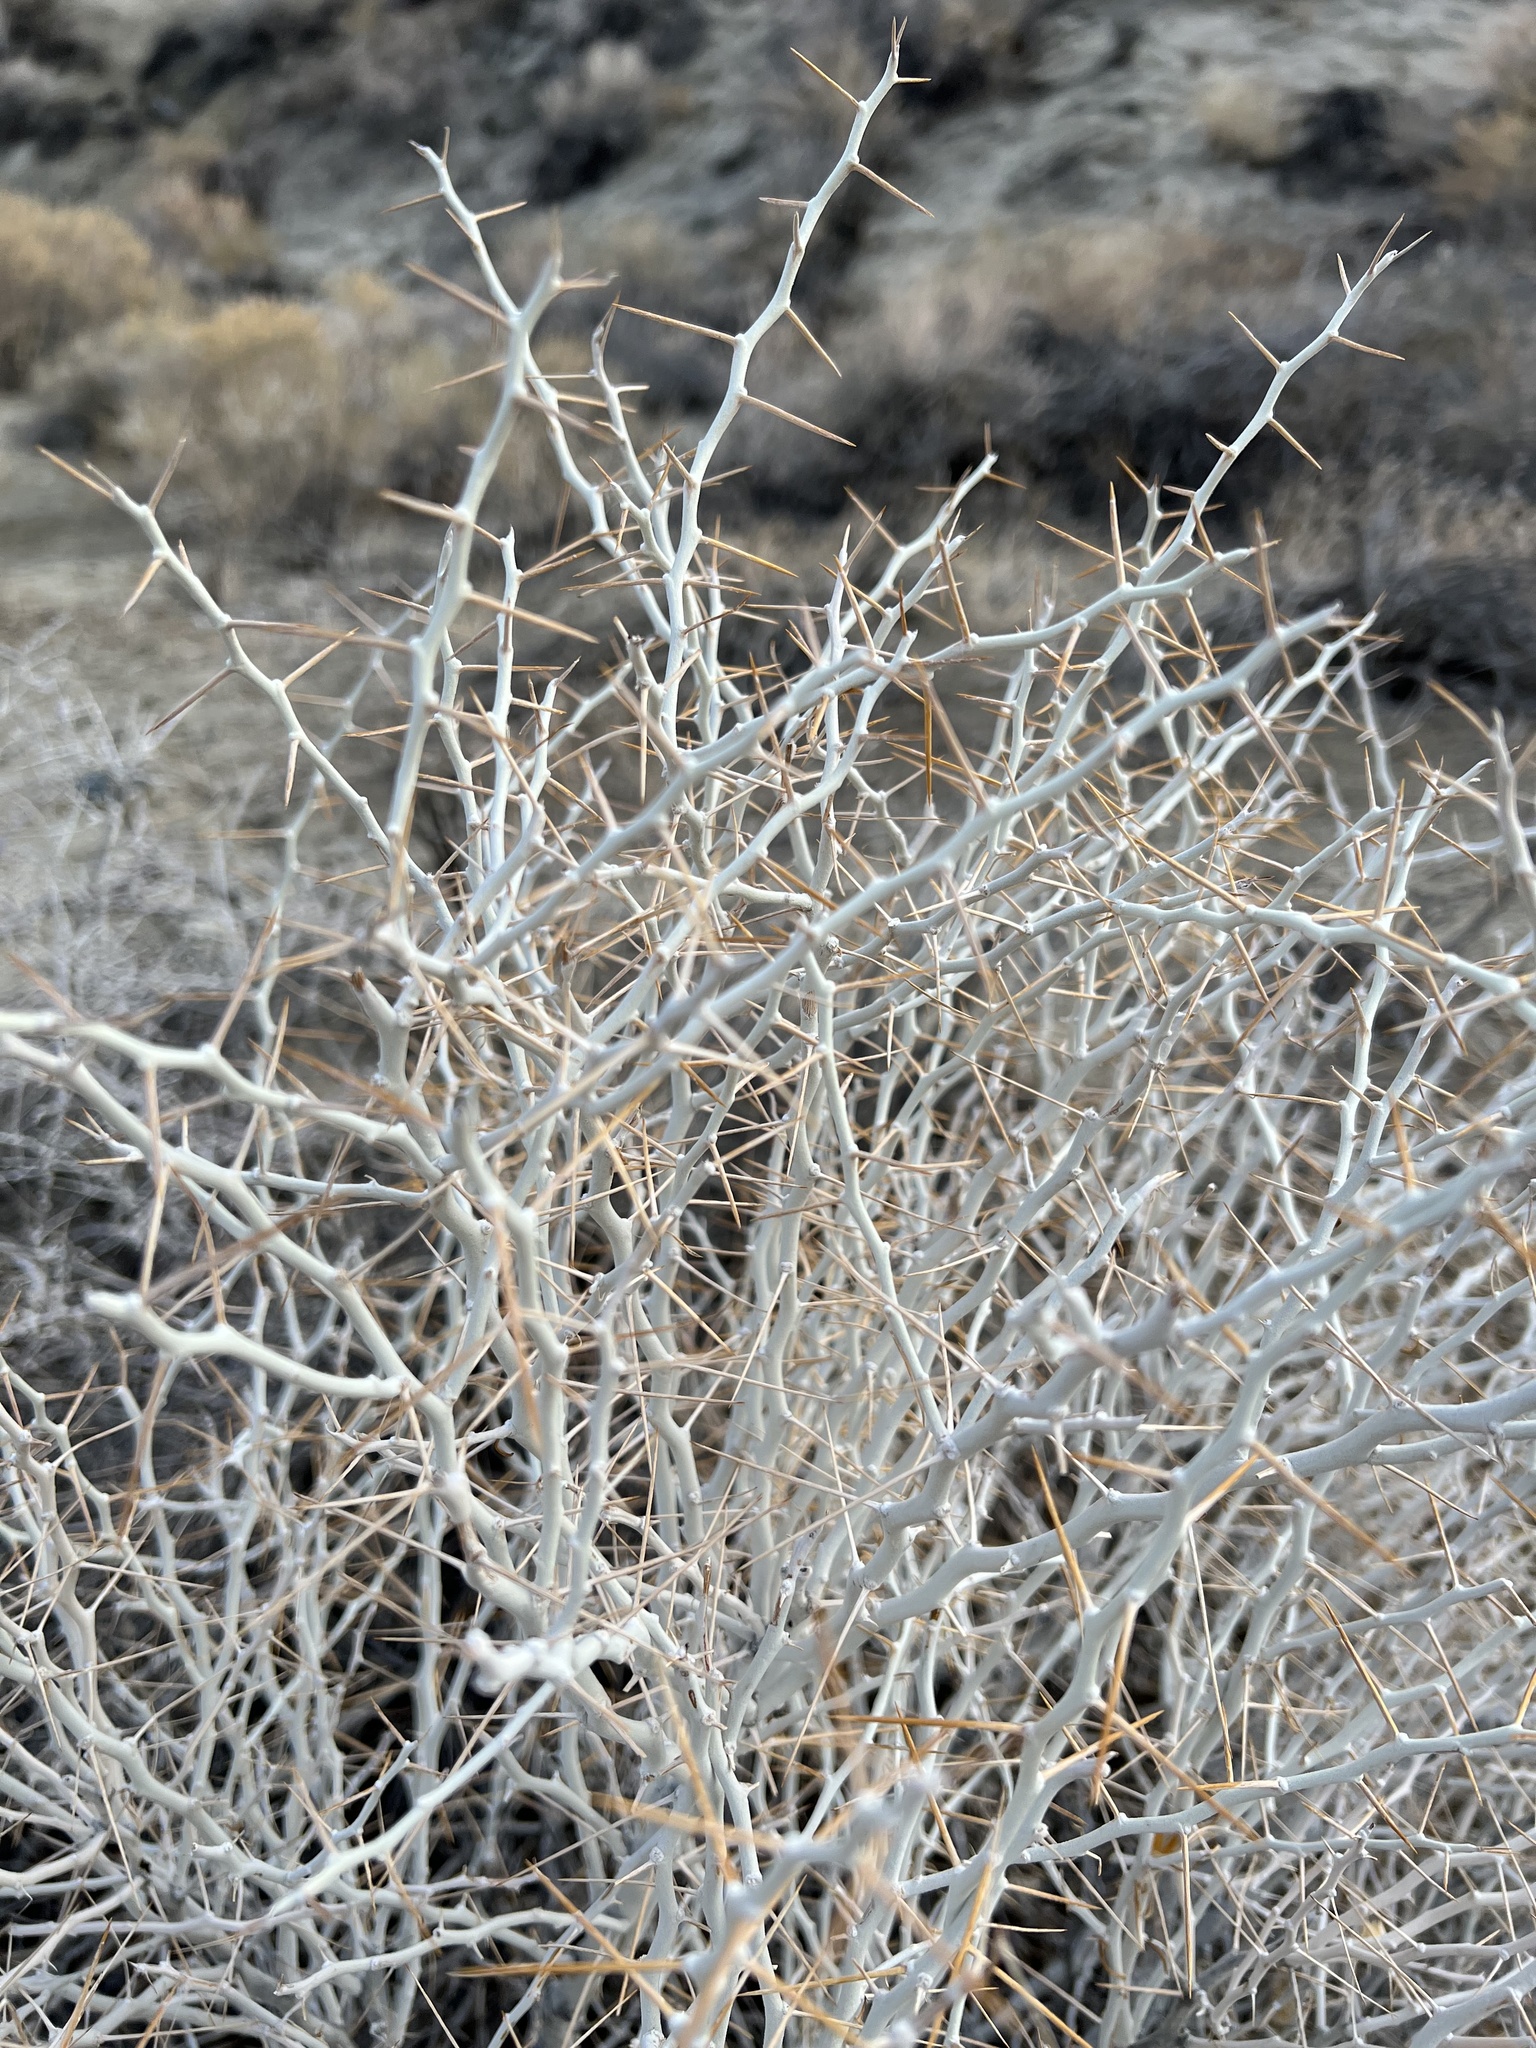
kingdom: Plantae
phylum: Tracheophyta
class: Magnoliopsida
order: Asterales
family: Asteraceae
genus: Tetradymia
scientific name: Tetradymia axillaris
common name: Long-spine horsebrush
